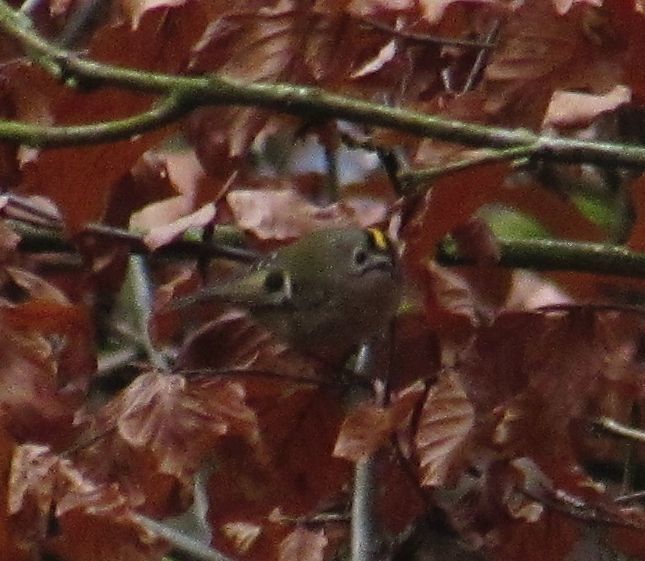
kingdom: Animalia
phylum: Chordata
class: Aves
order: Passeriformes
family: Regulidae
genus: Regulus
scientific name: Regulus regulus
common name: Goldcrest
